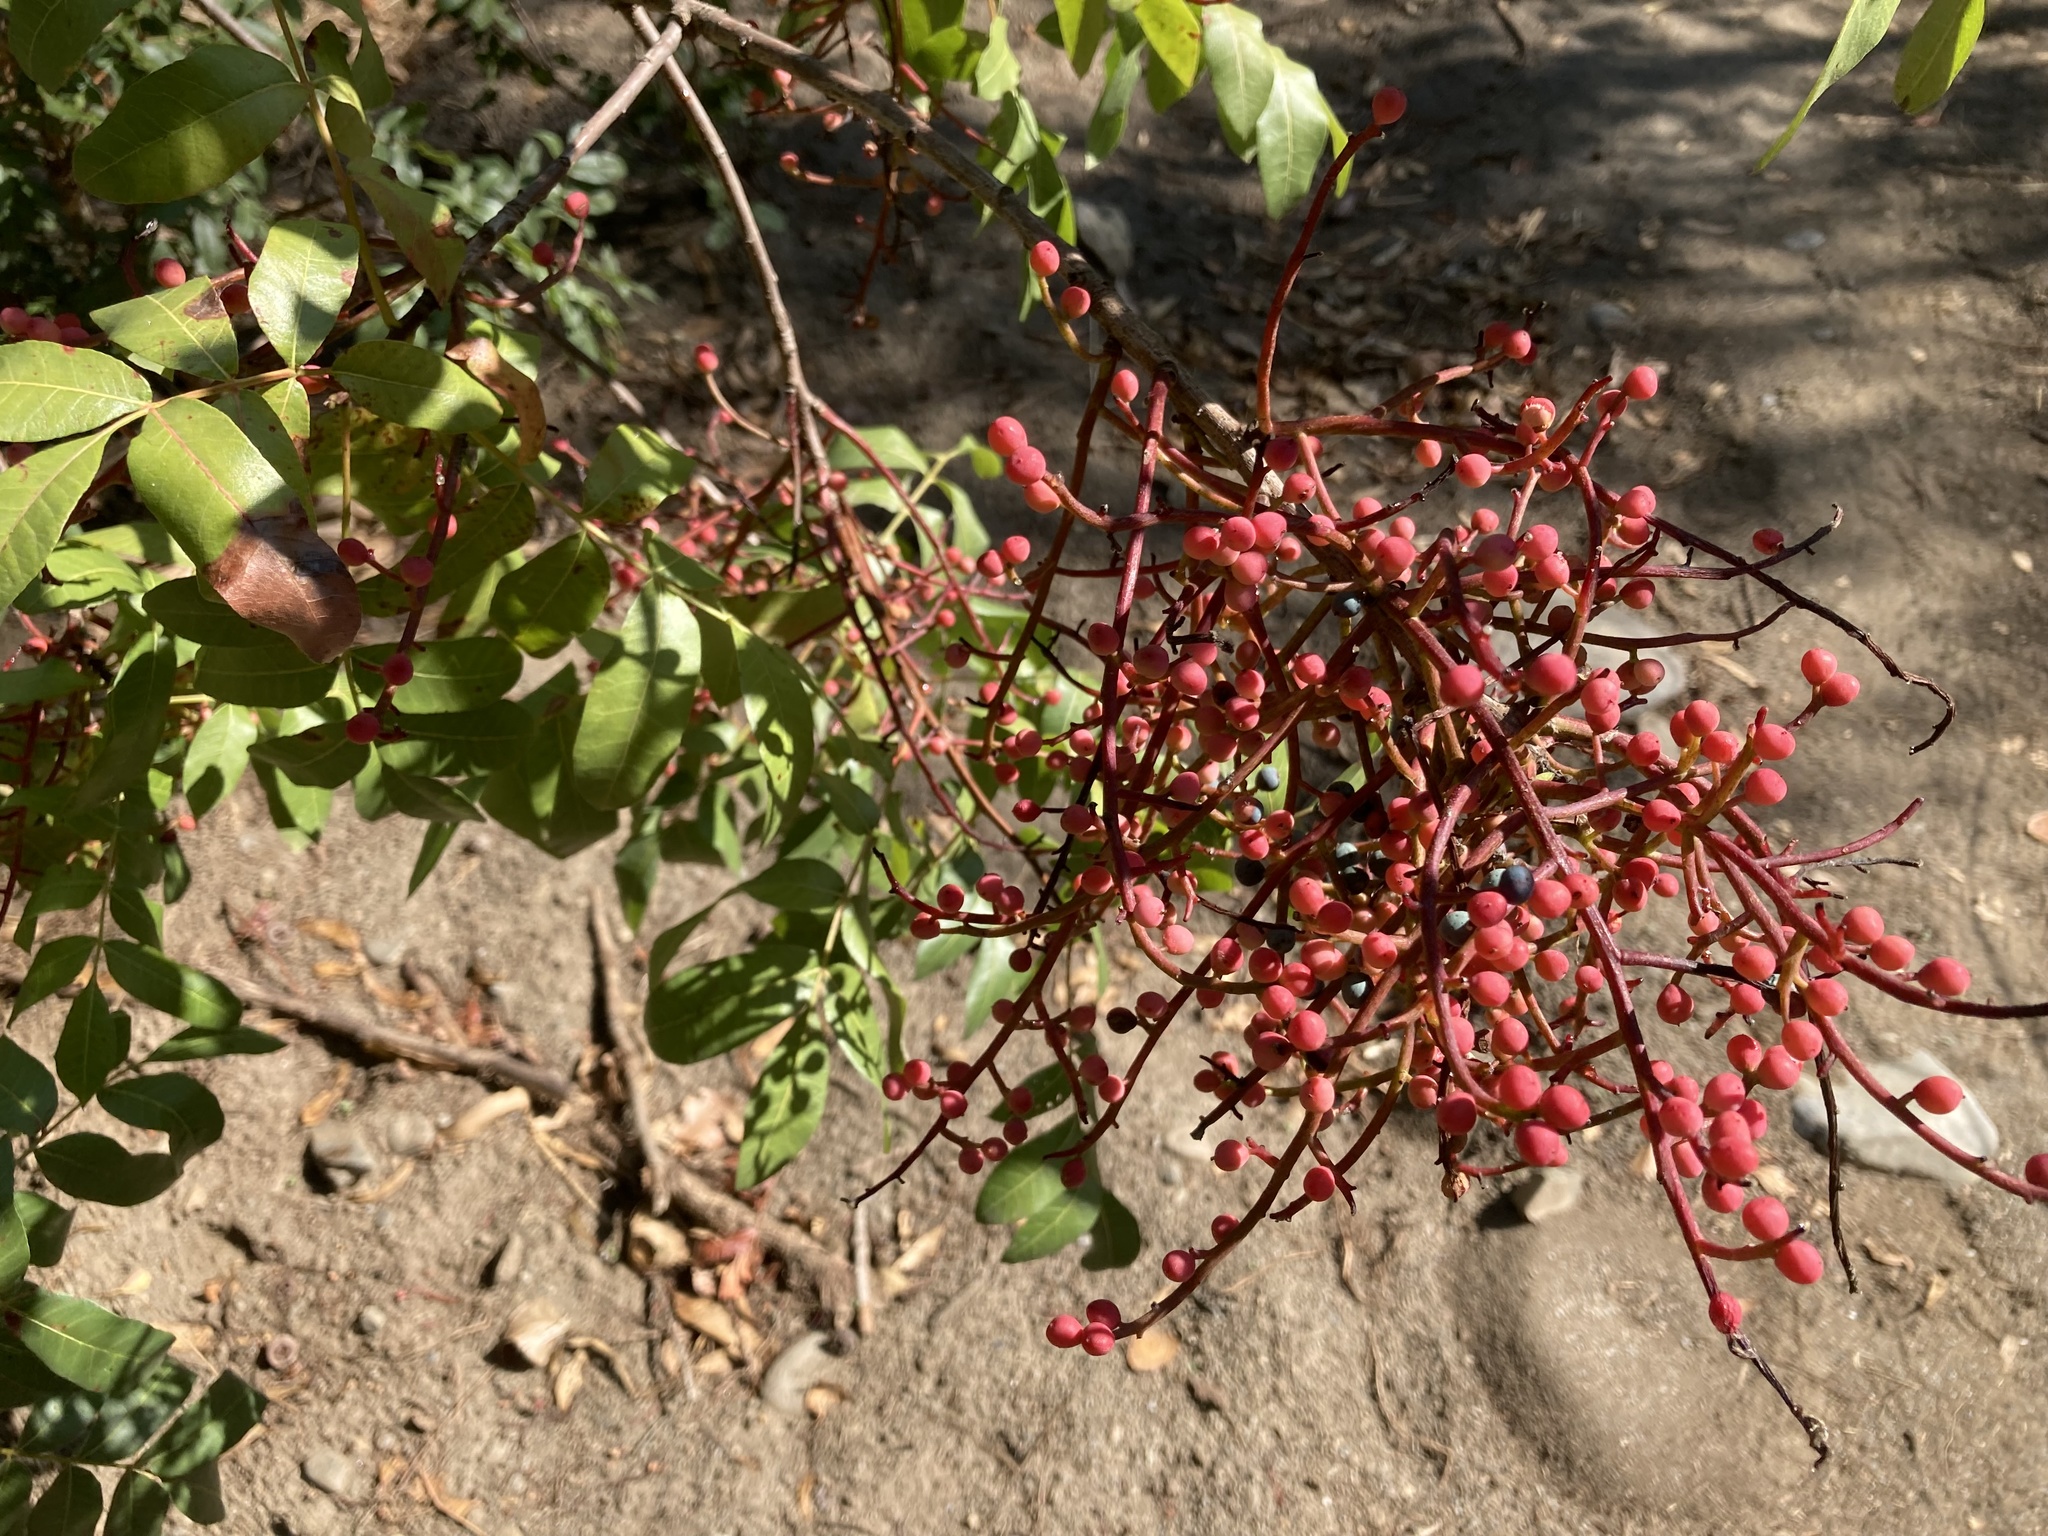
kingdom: Plantae
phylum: Tracheophyta
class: Magnoliopsida
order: Sapindales
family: Anacardiaceae
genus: Pistacia
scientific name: Pistacia terebinthus
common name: Terebinth
